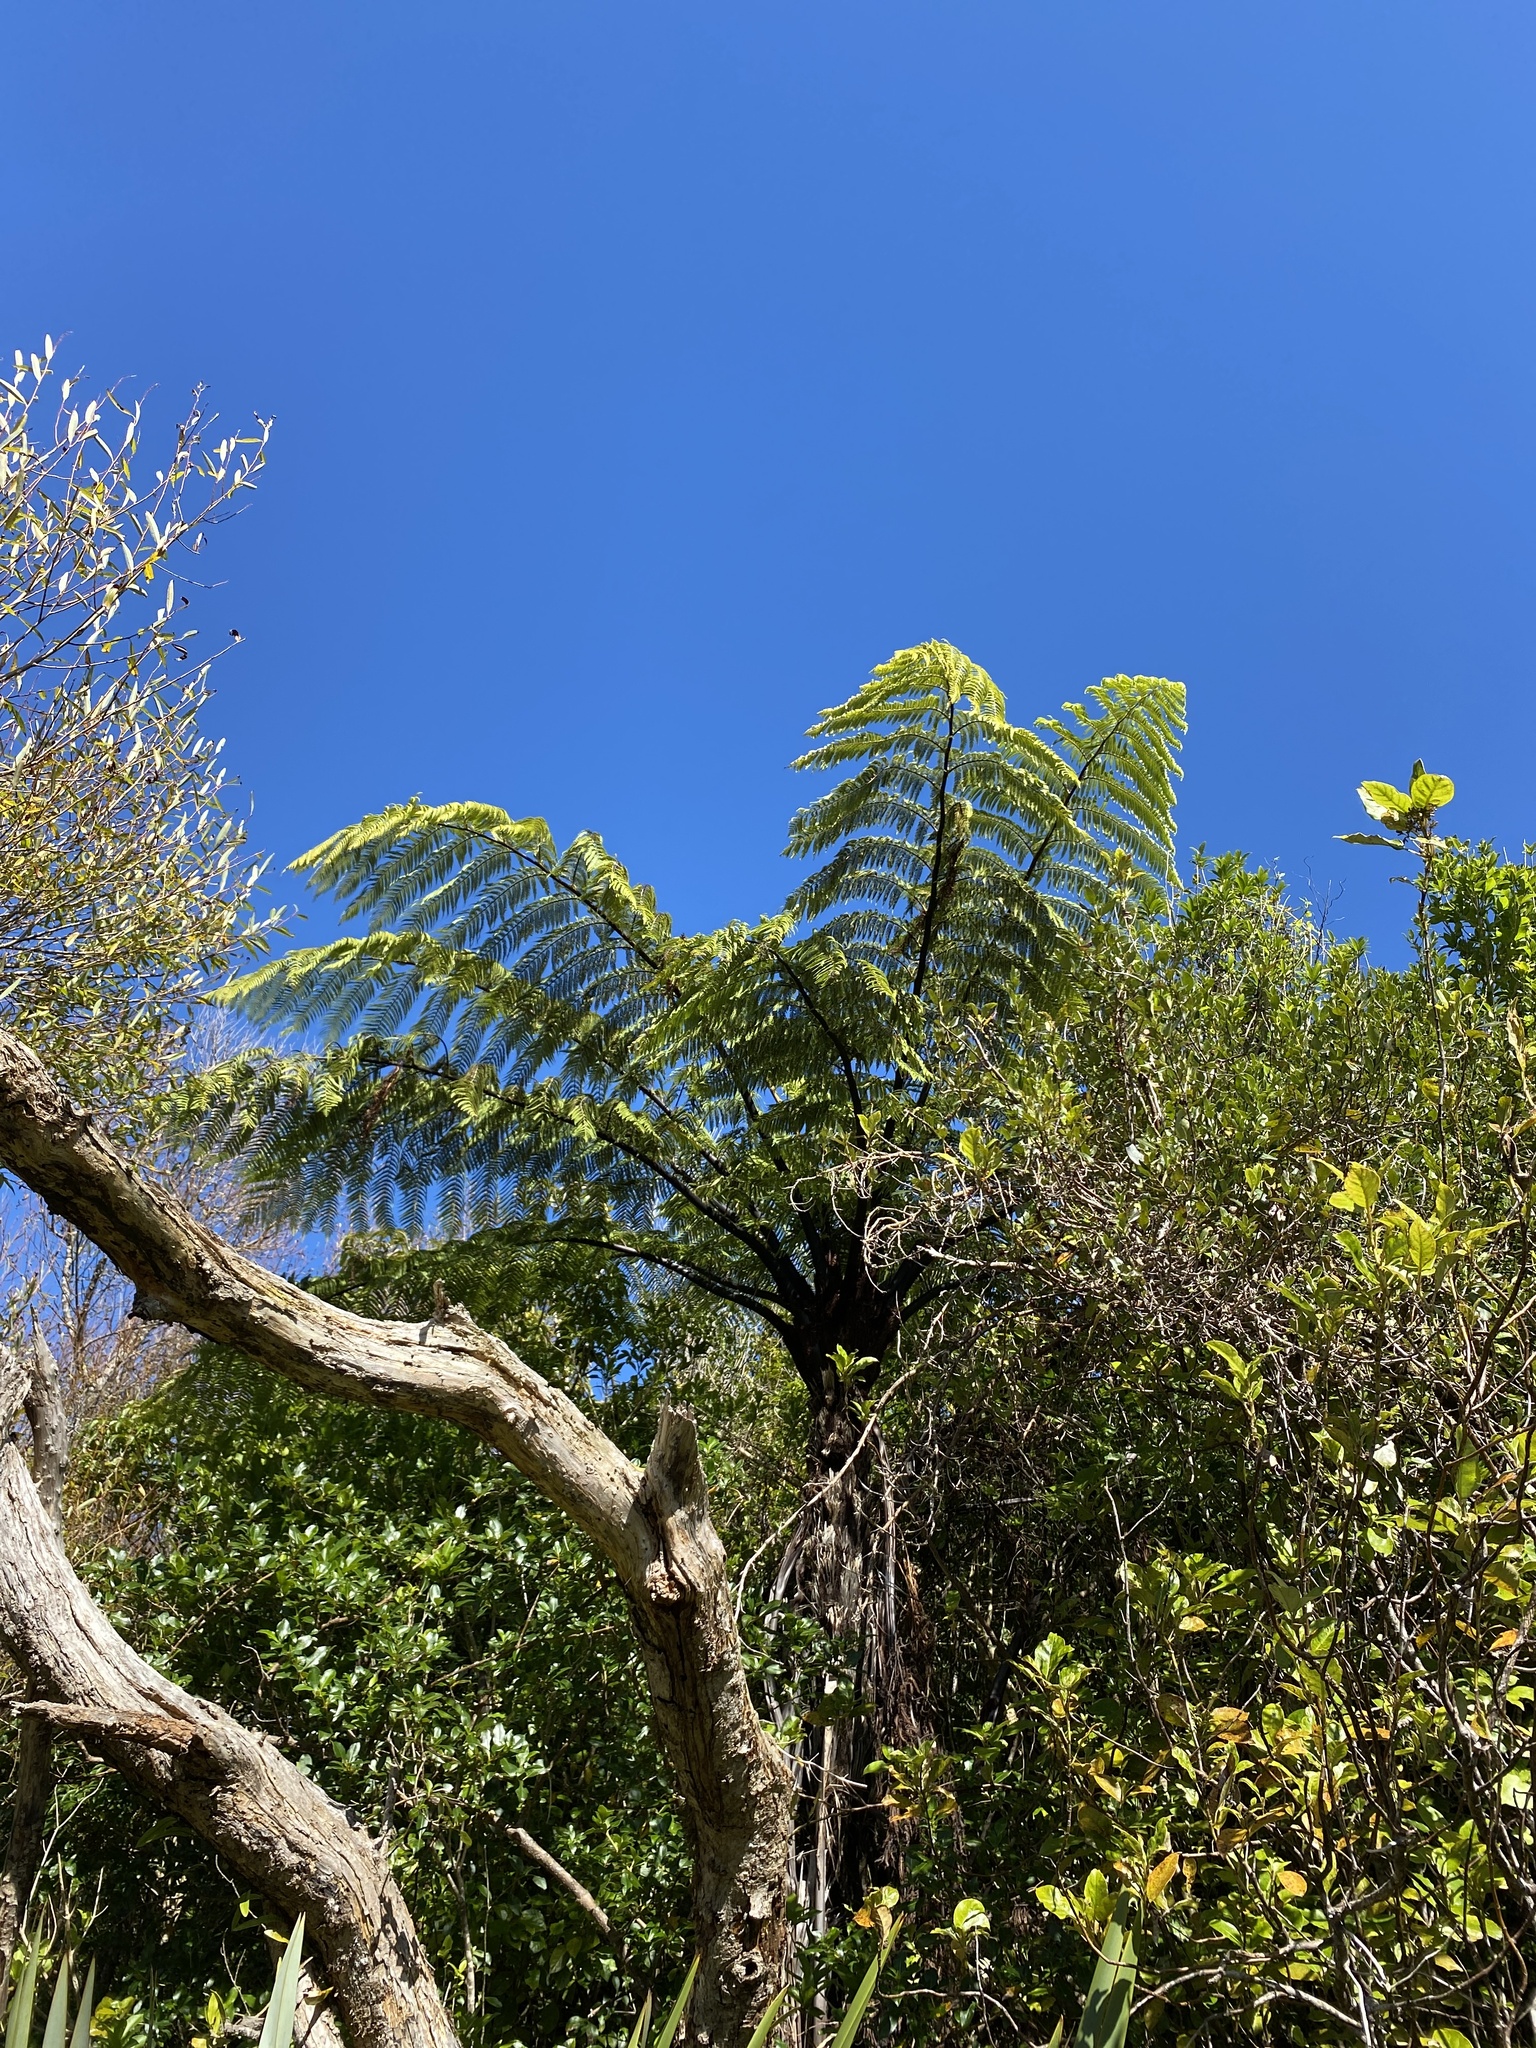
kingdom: Plantae
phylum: Tracheophyta
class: Polypodiopsida
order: Cyatheales
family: Cyatheaceae
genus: Sphaeropteris
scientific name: Sphaeropteris medullaris
